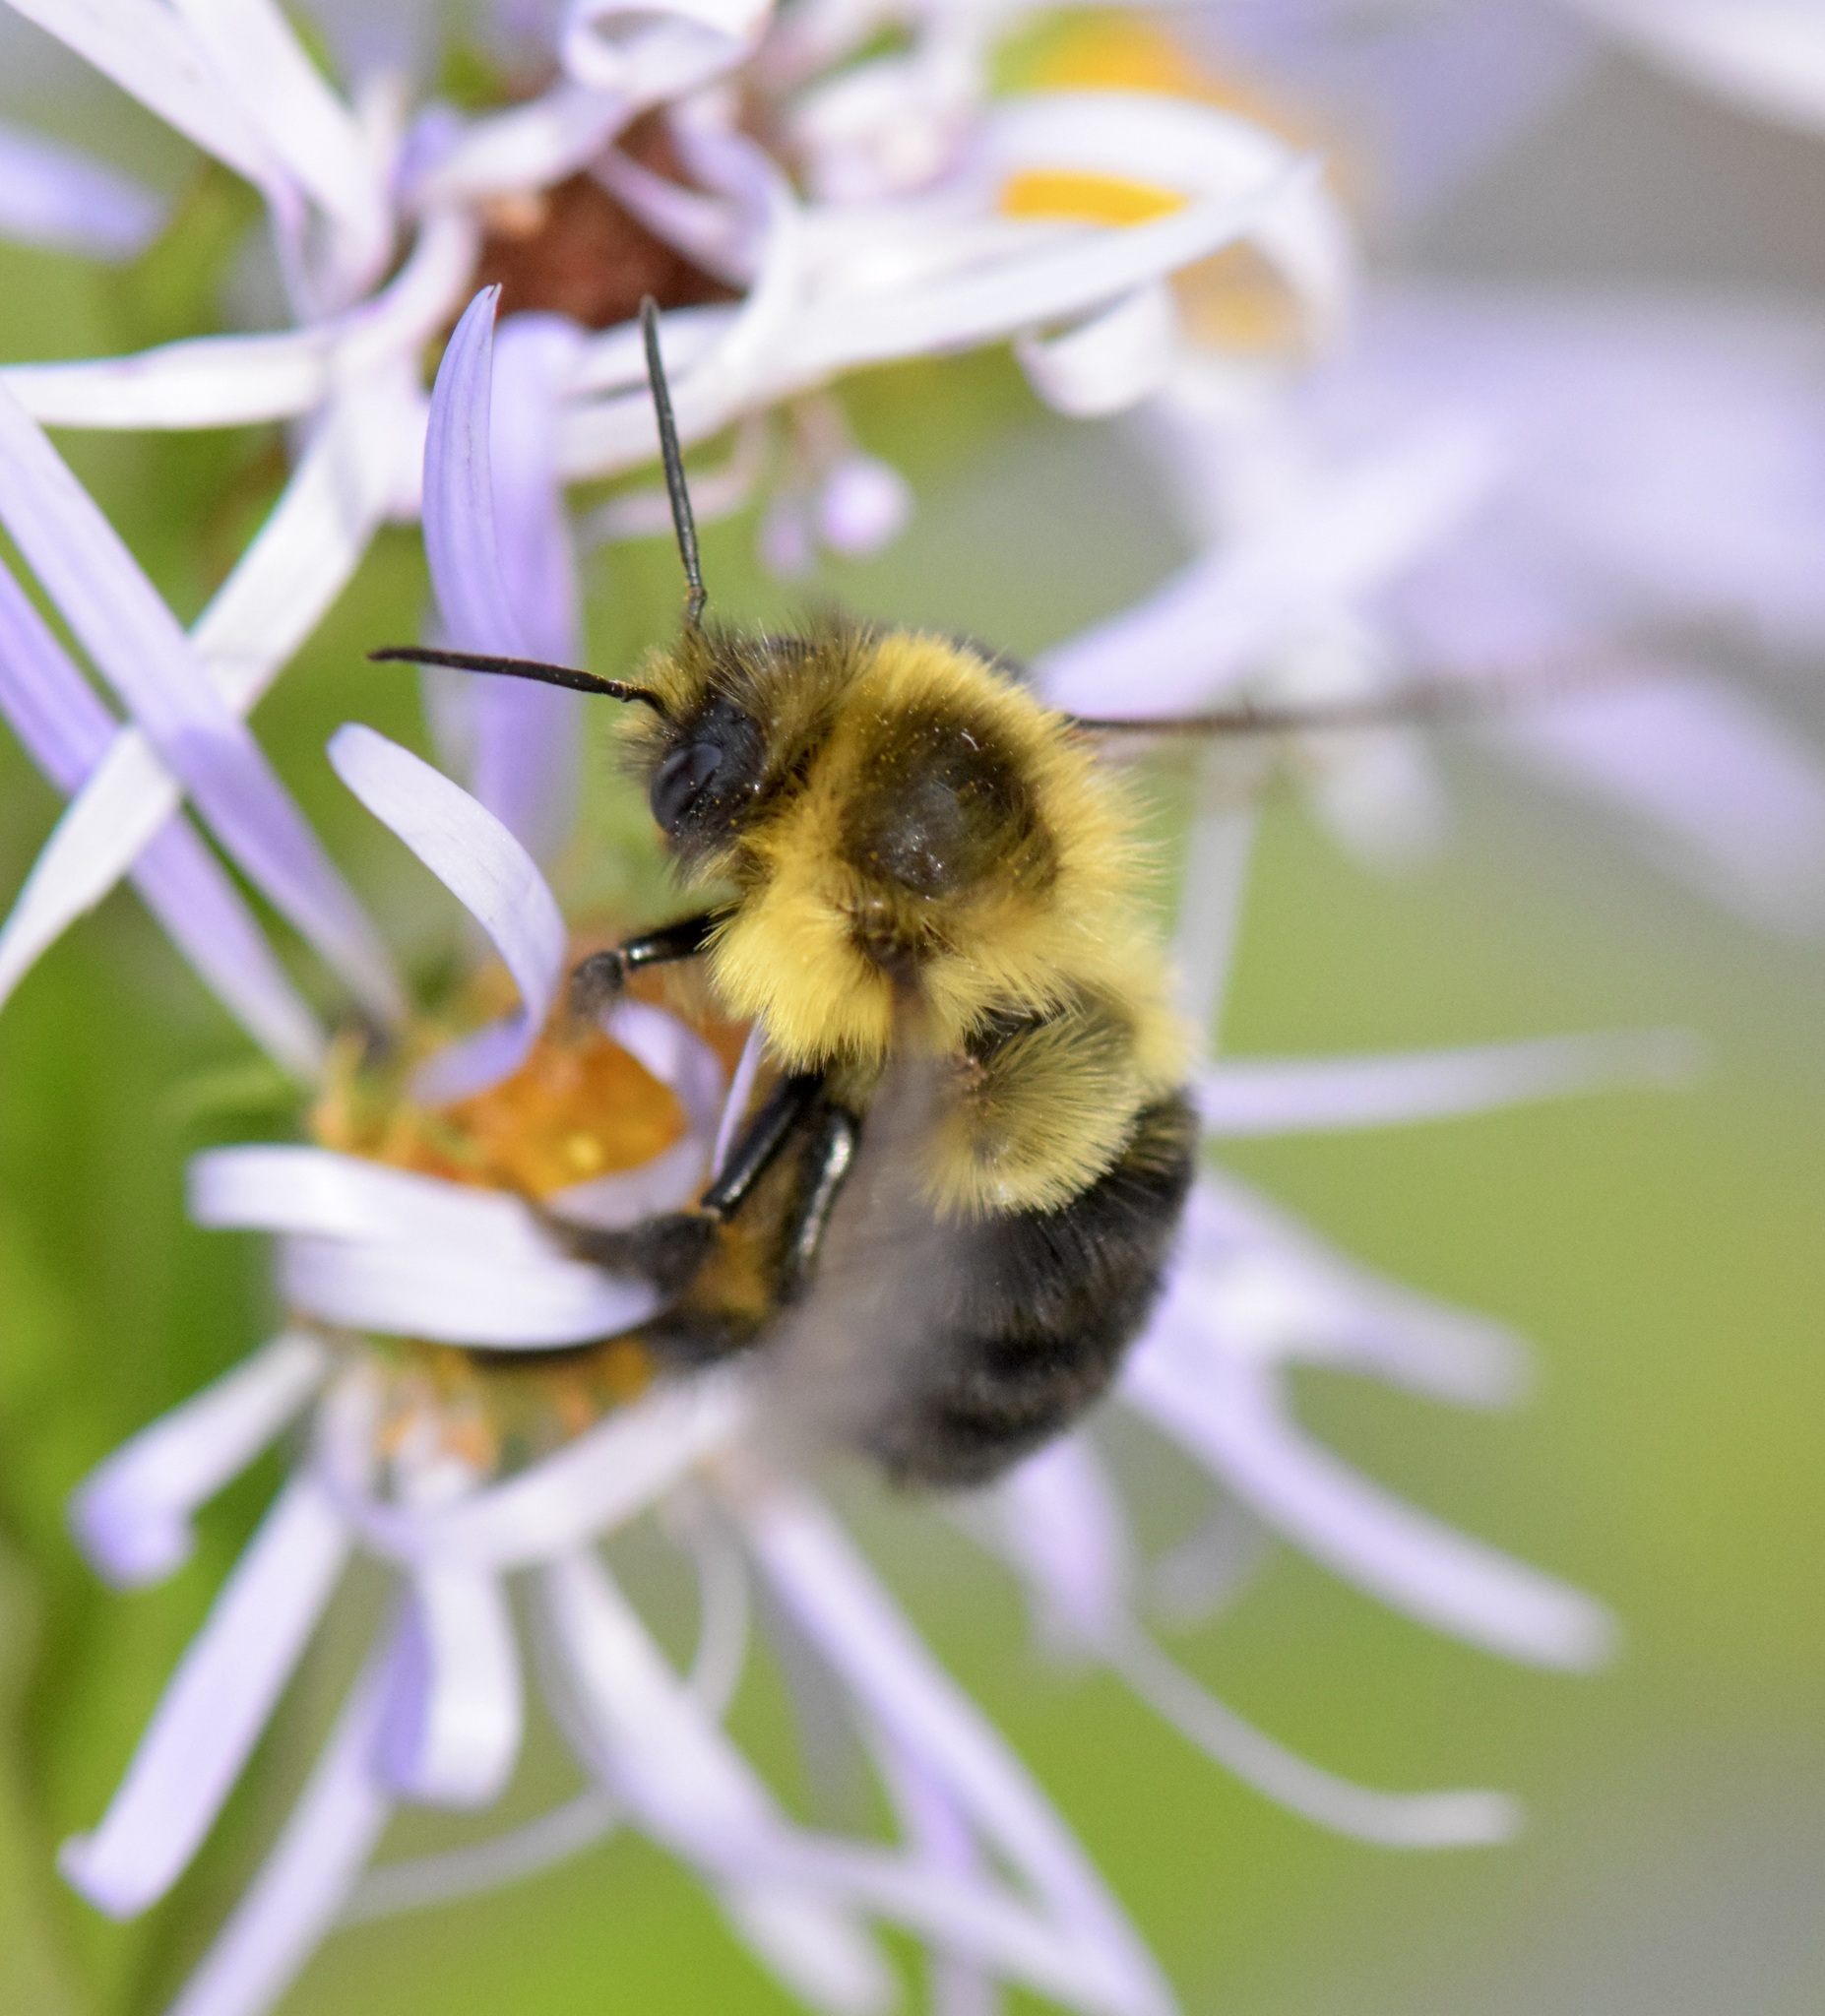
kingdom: Animalia
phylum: Arthropoda
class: Insecta
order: Hymenoptera
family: Apidae
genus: Bombus
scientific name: Bombus impatiens
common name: Common eastern bumble bee
